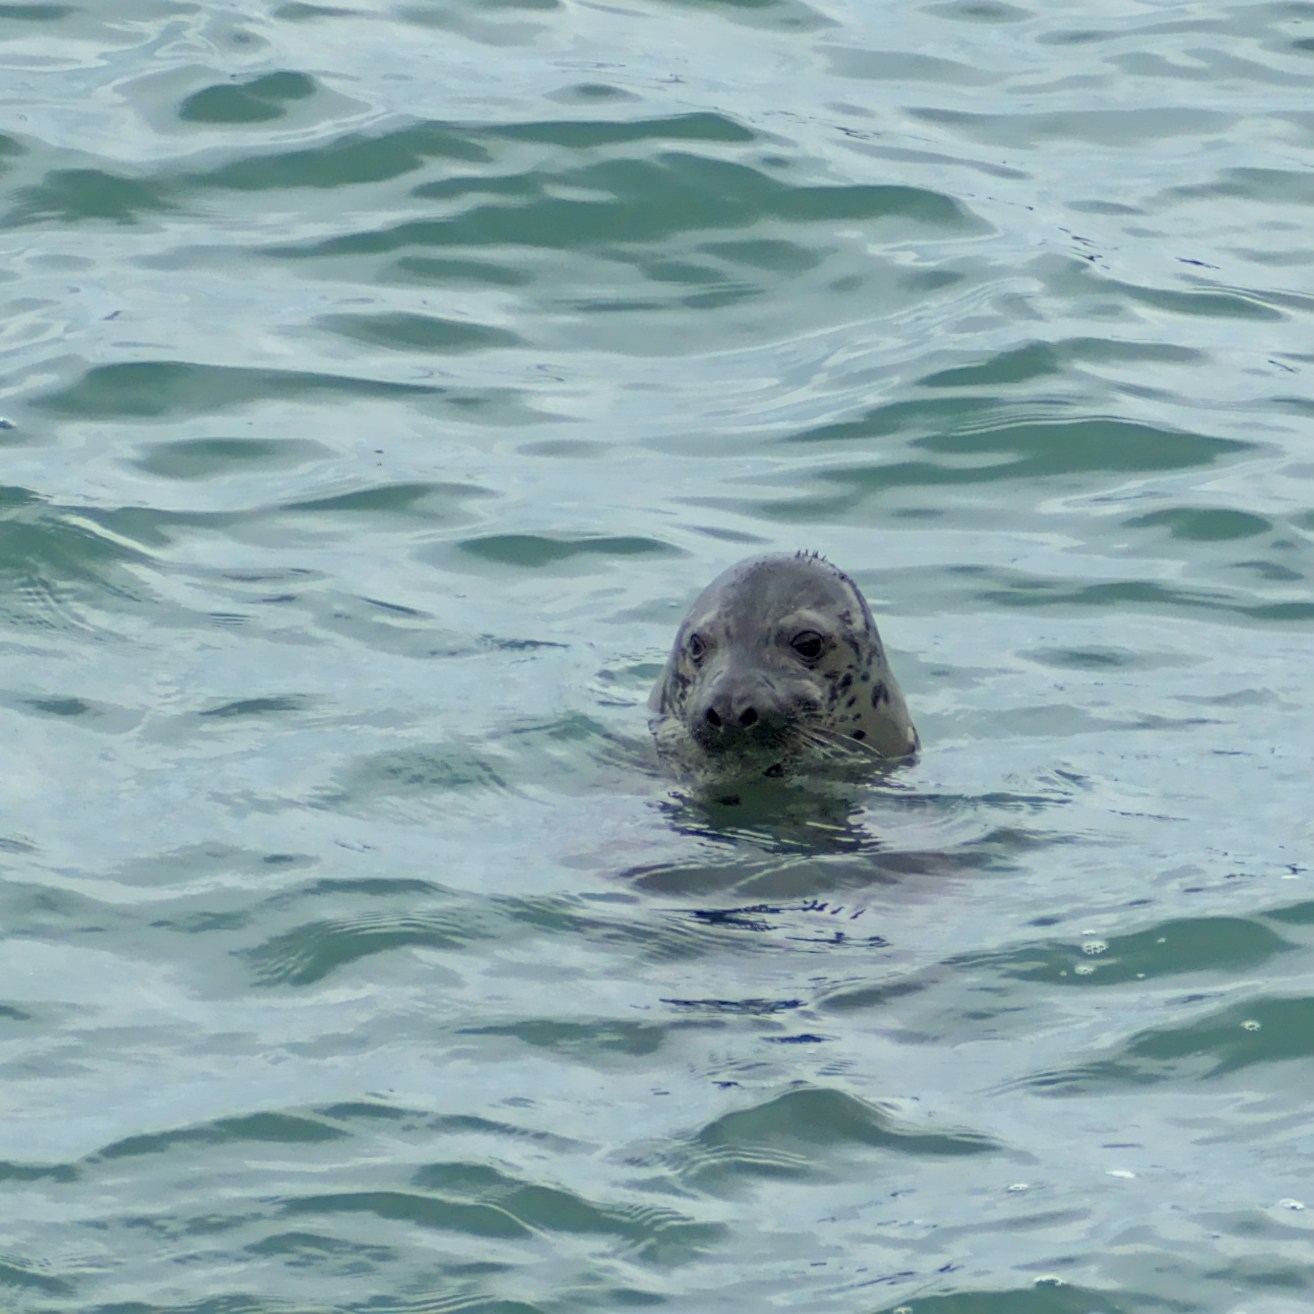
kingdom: Animalia
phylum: Chordata
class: Mammalia
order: Carnivora
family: Phocidae
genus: Halichoerus
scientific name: Halichoerus grypus
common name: Grey seal
